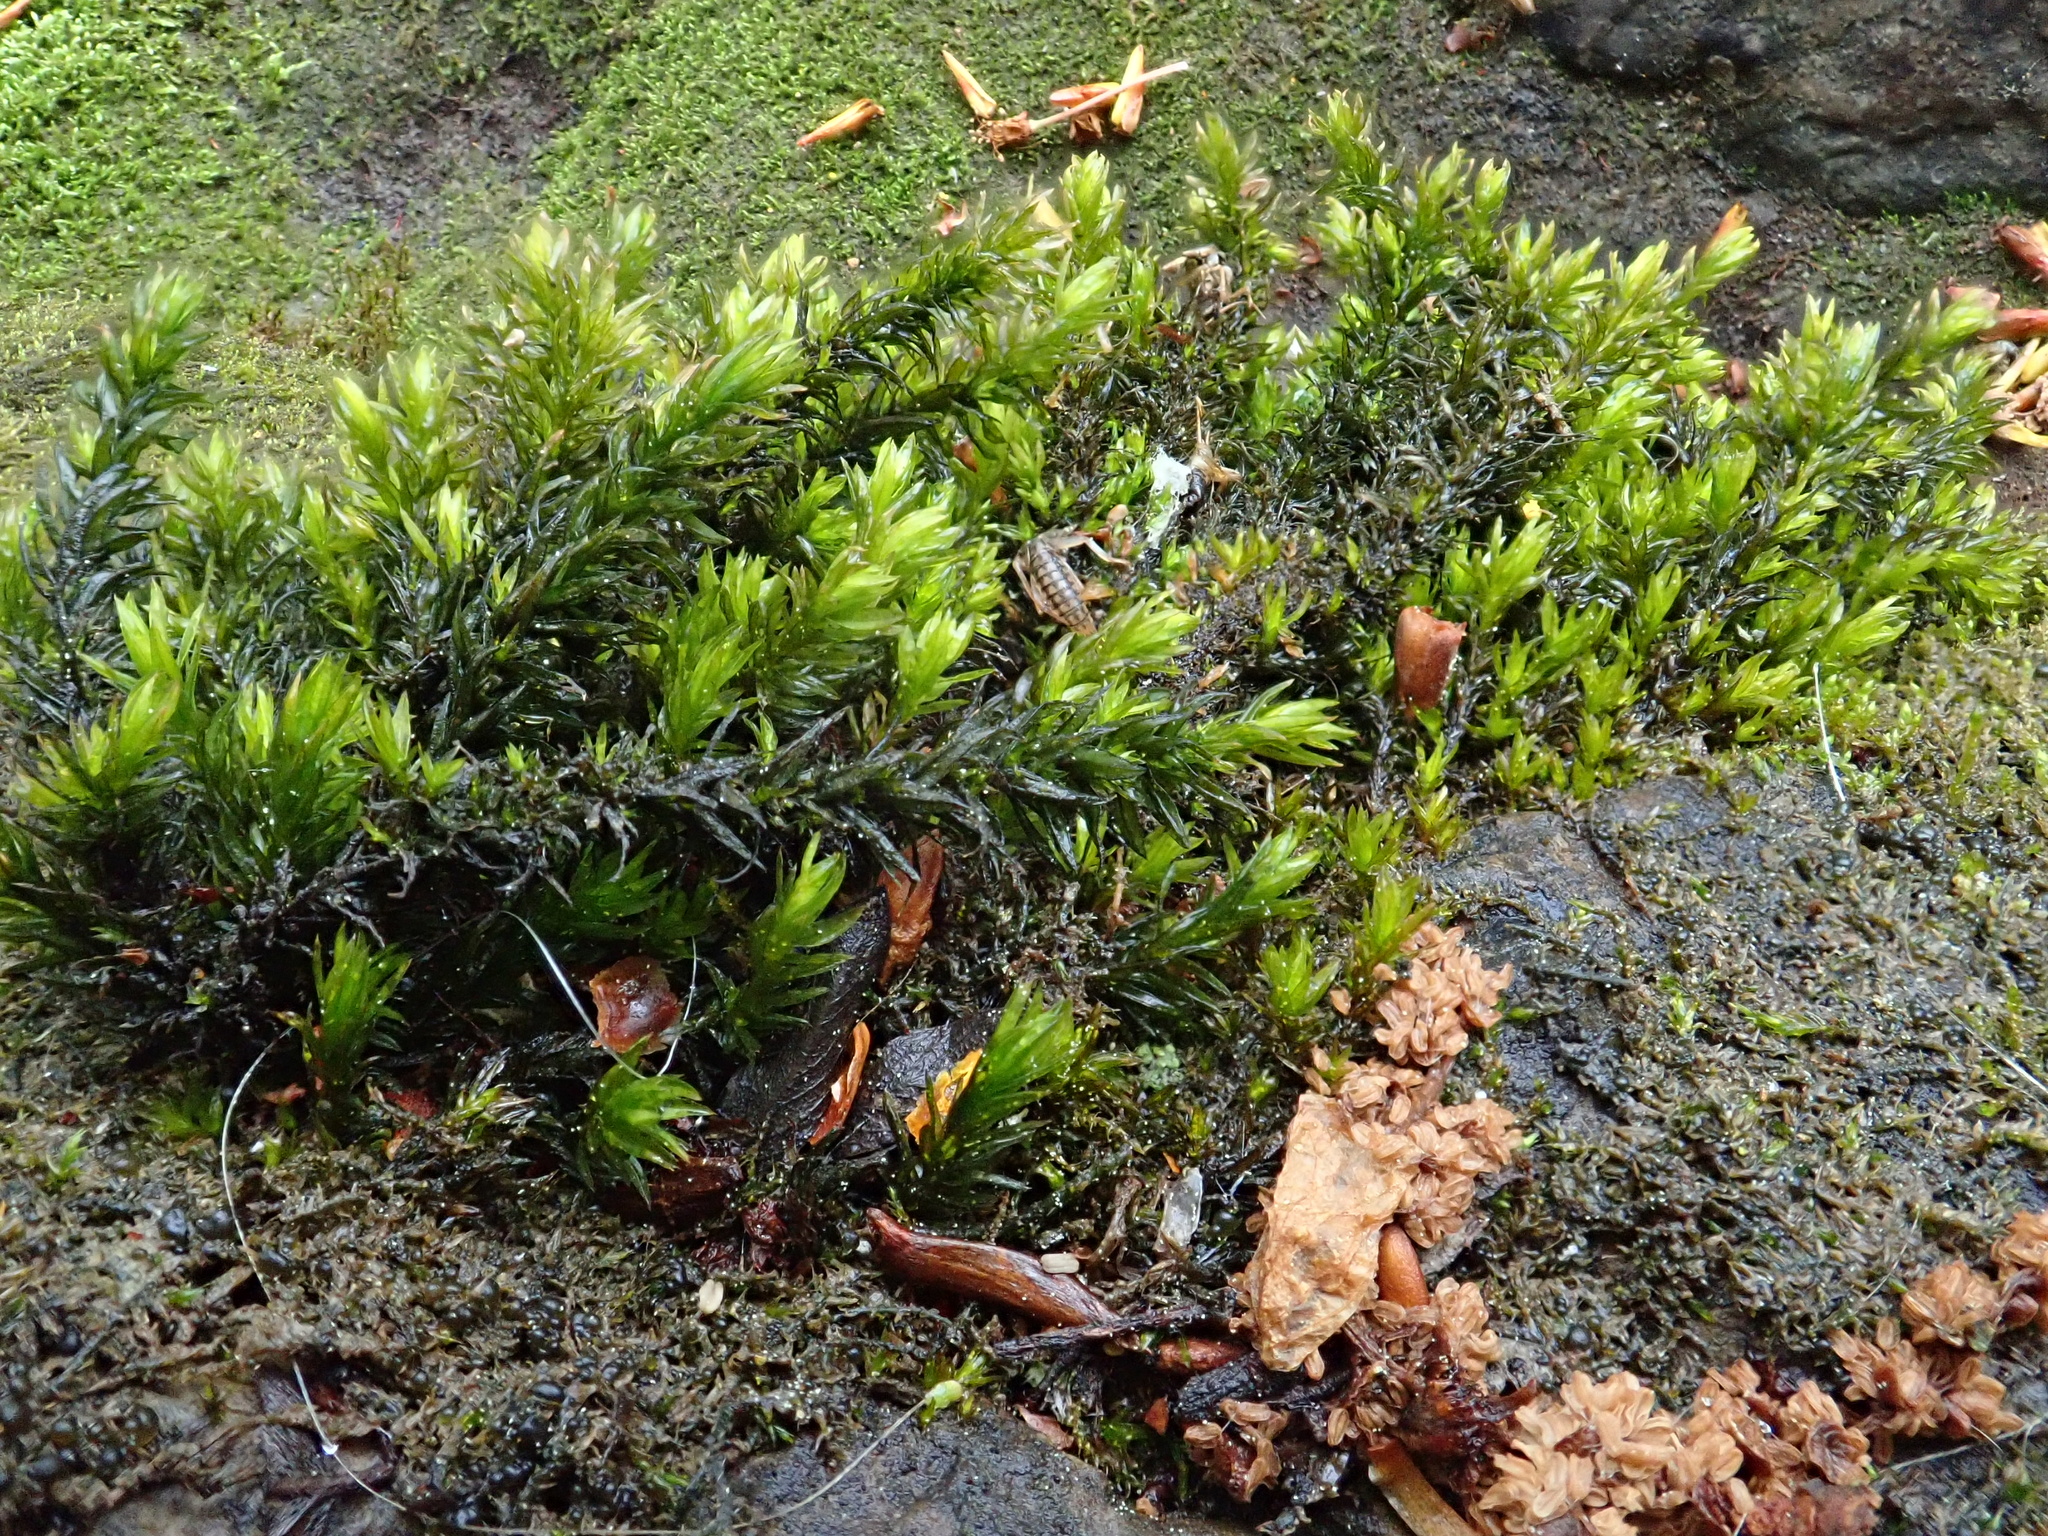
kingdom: Plantae
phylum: Bryophyta
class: Bryopsida
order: Pottiales
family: Pottiaceae
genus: Cinclidotus
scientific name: Cinclidotus fontinaloides
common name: Smaller lattice-moss
